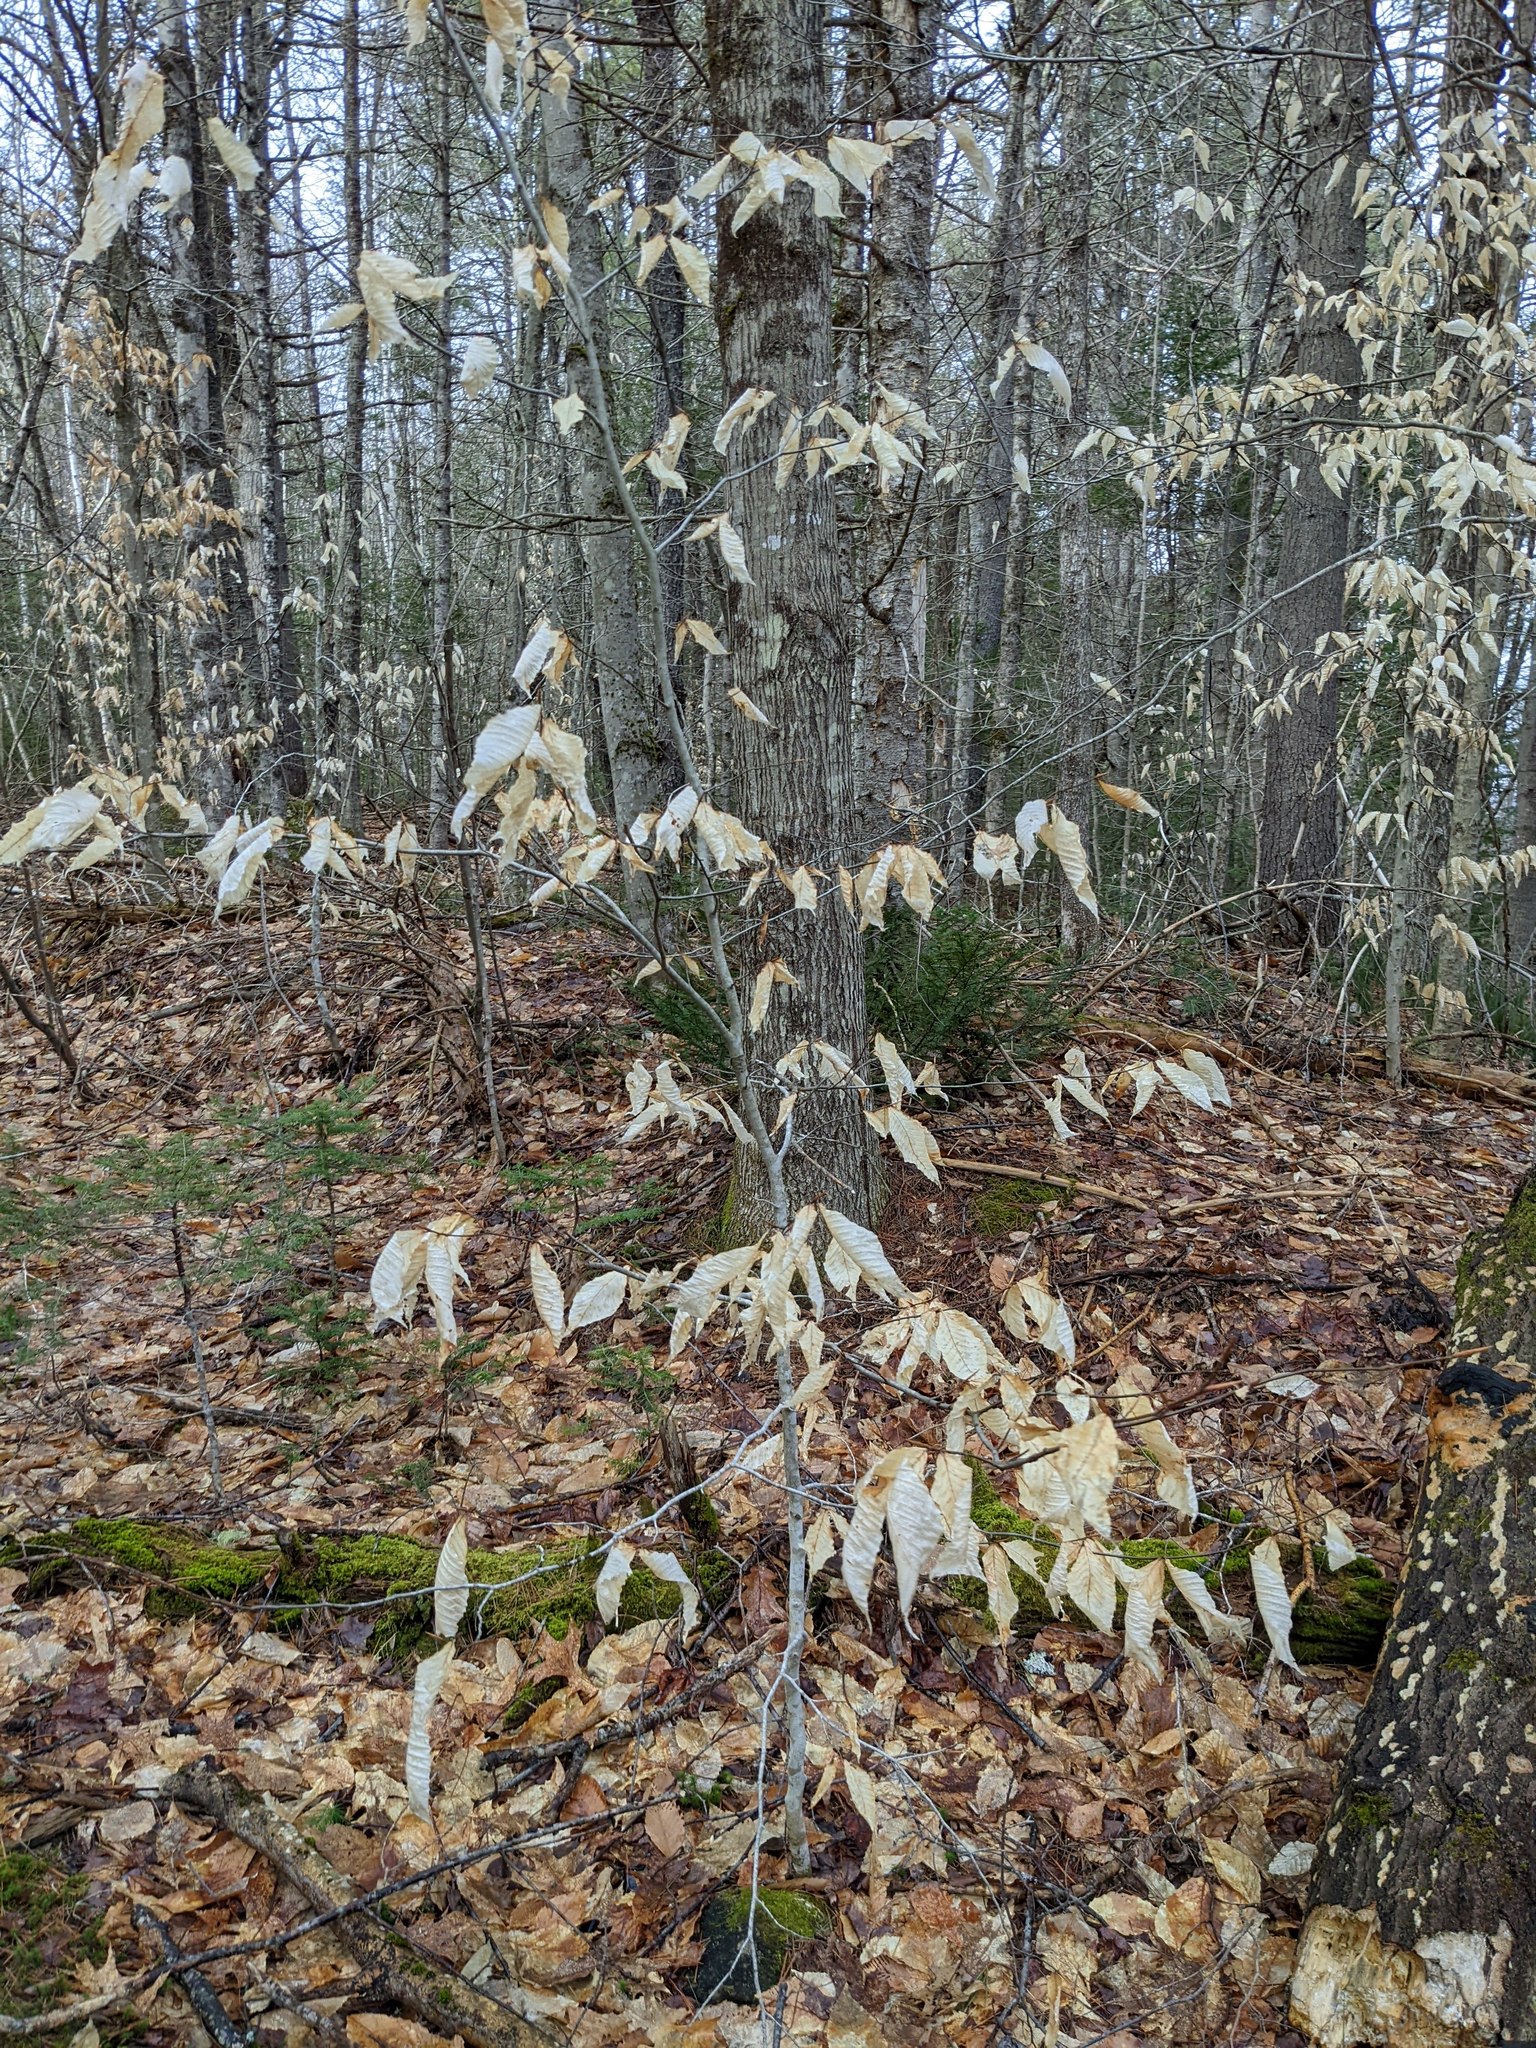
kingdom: Plantae
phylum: Tracheophyta
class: Magnoliopsida
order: Fagales
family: Fagaceae
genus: Fagus
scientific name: Fagus grandifolia
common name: American beech
